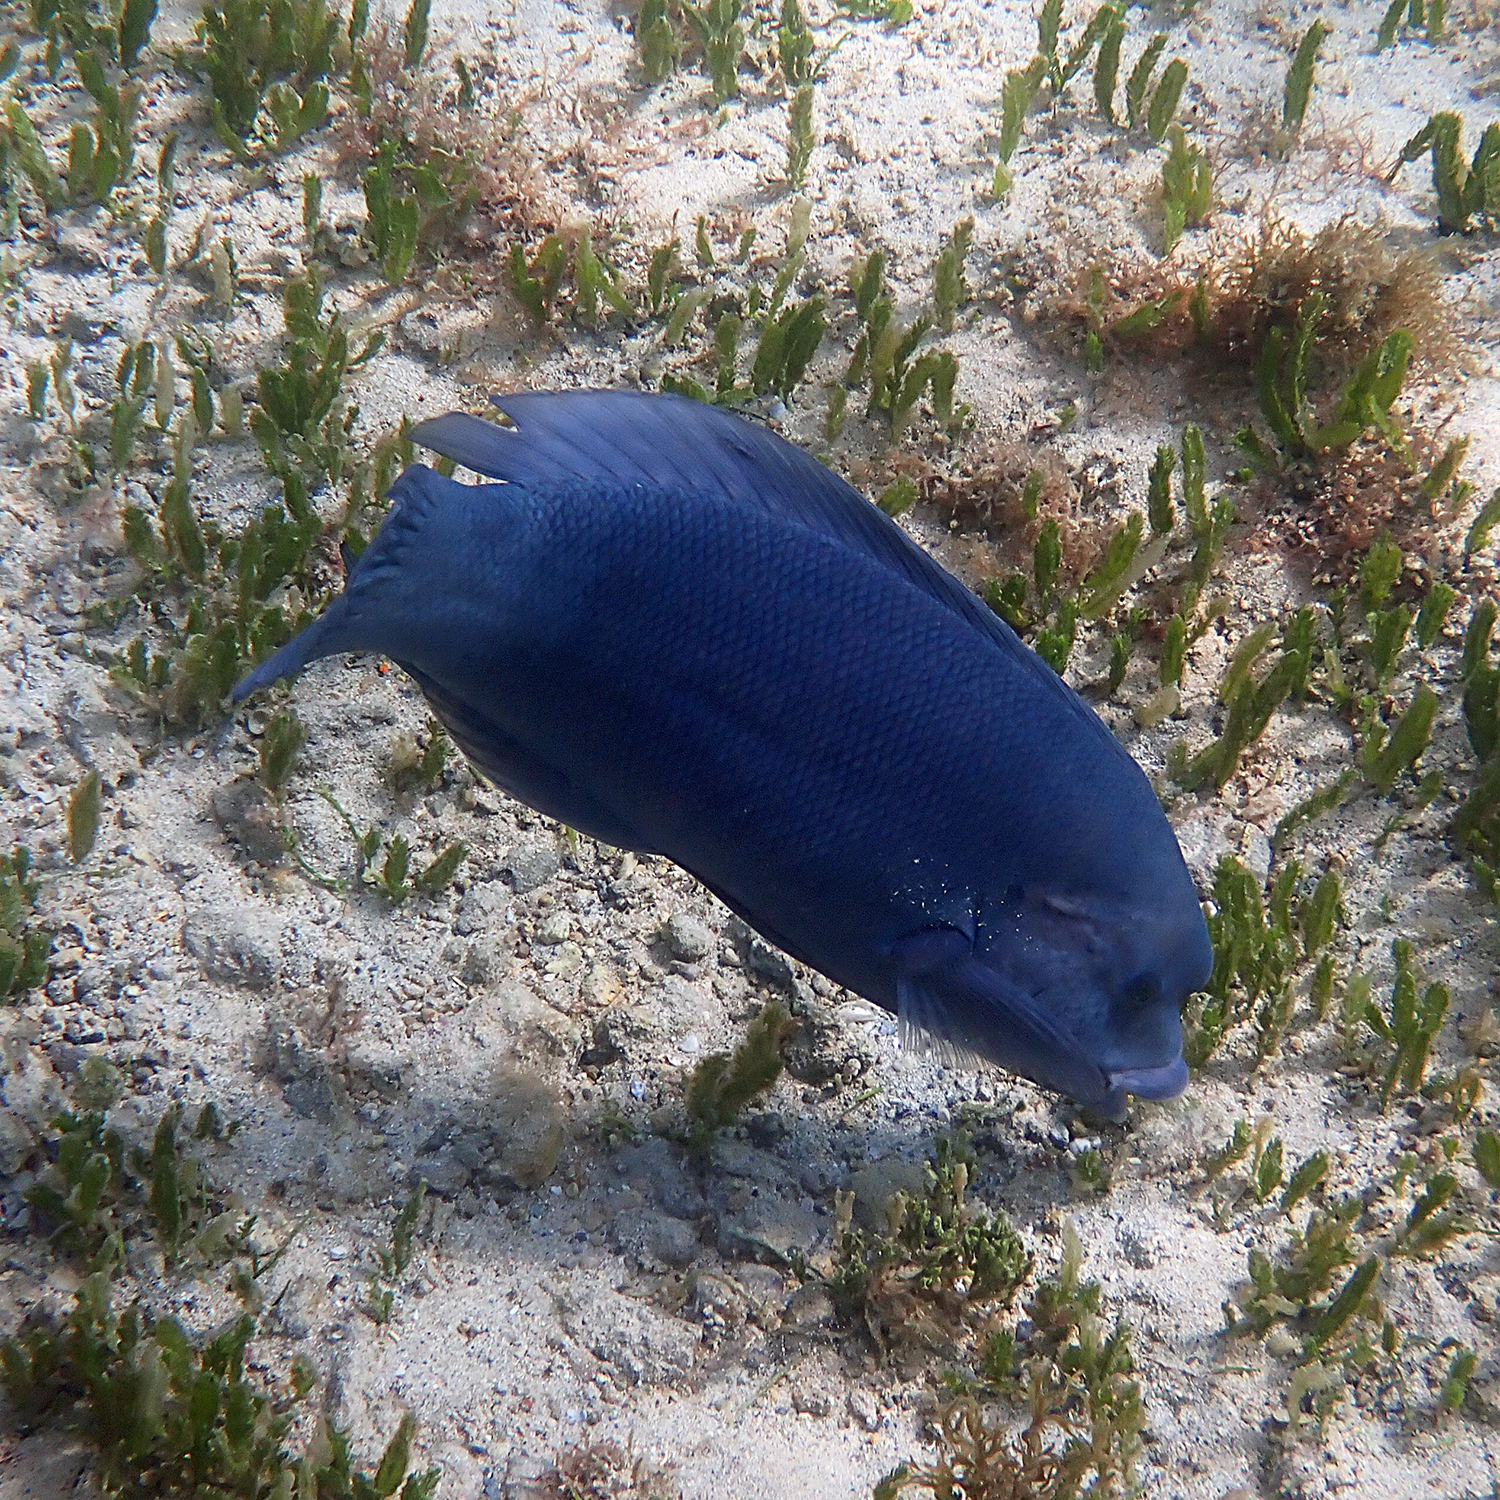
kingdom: Animalia
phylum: Chordata
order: Perciformes
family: Labridae
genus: Coris
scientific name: Coris bulbifrons
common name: Doubleheader
